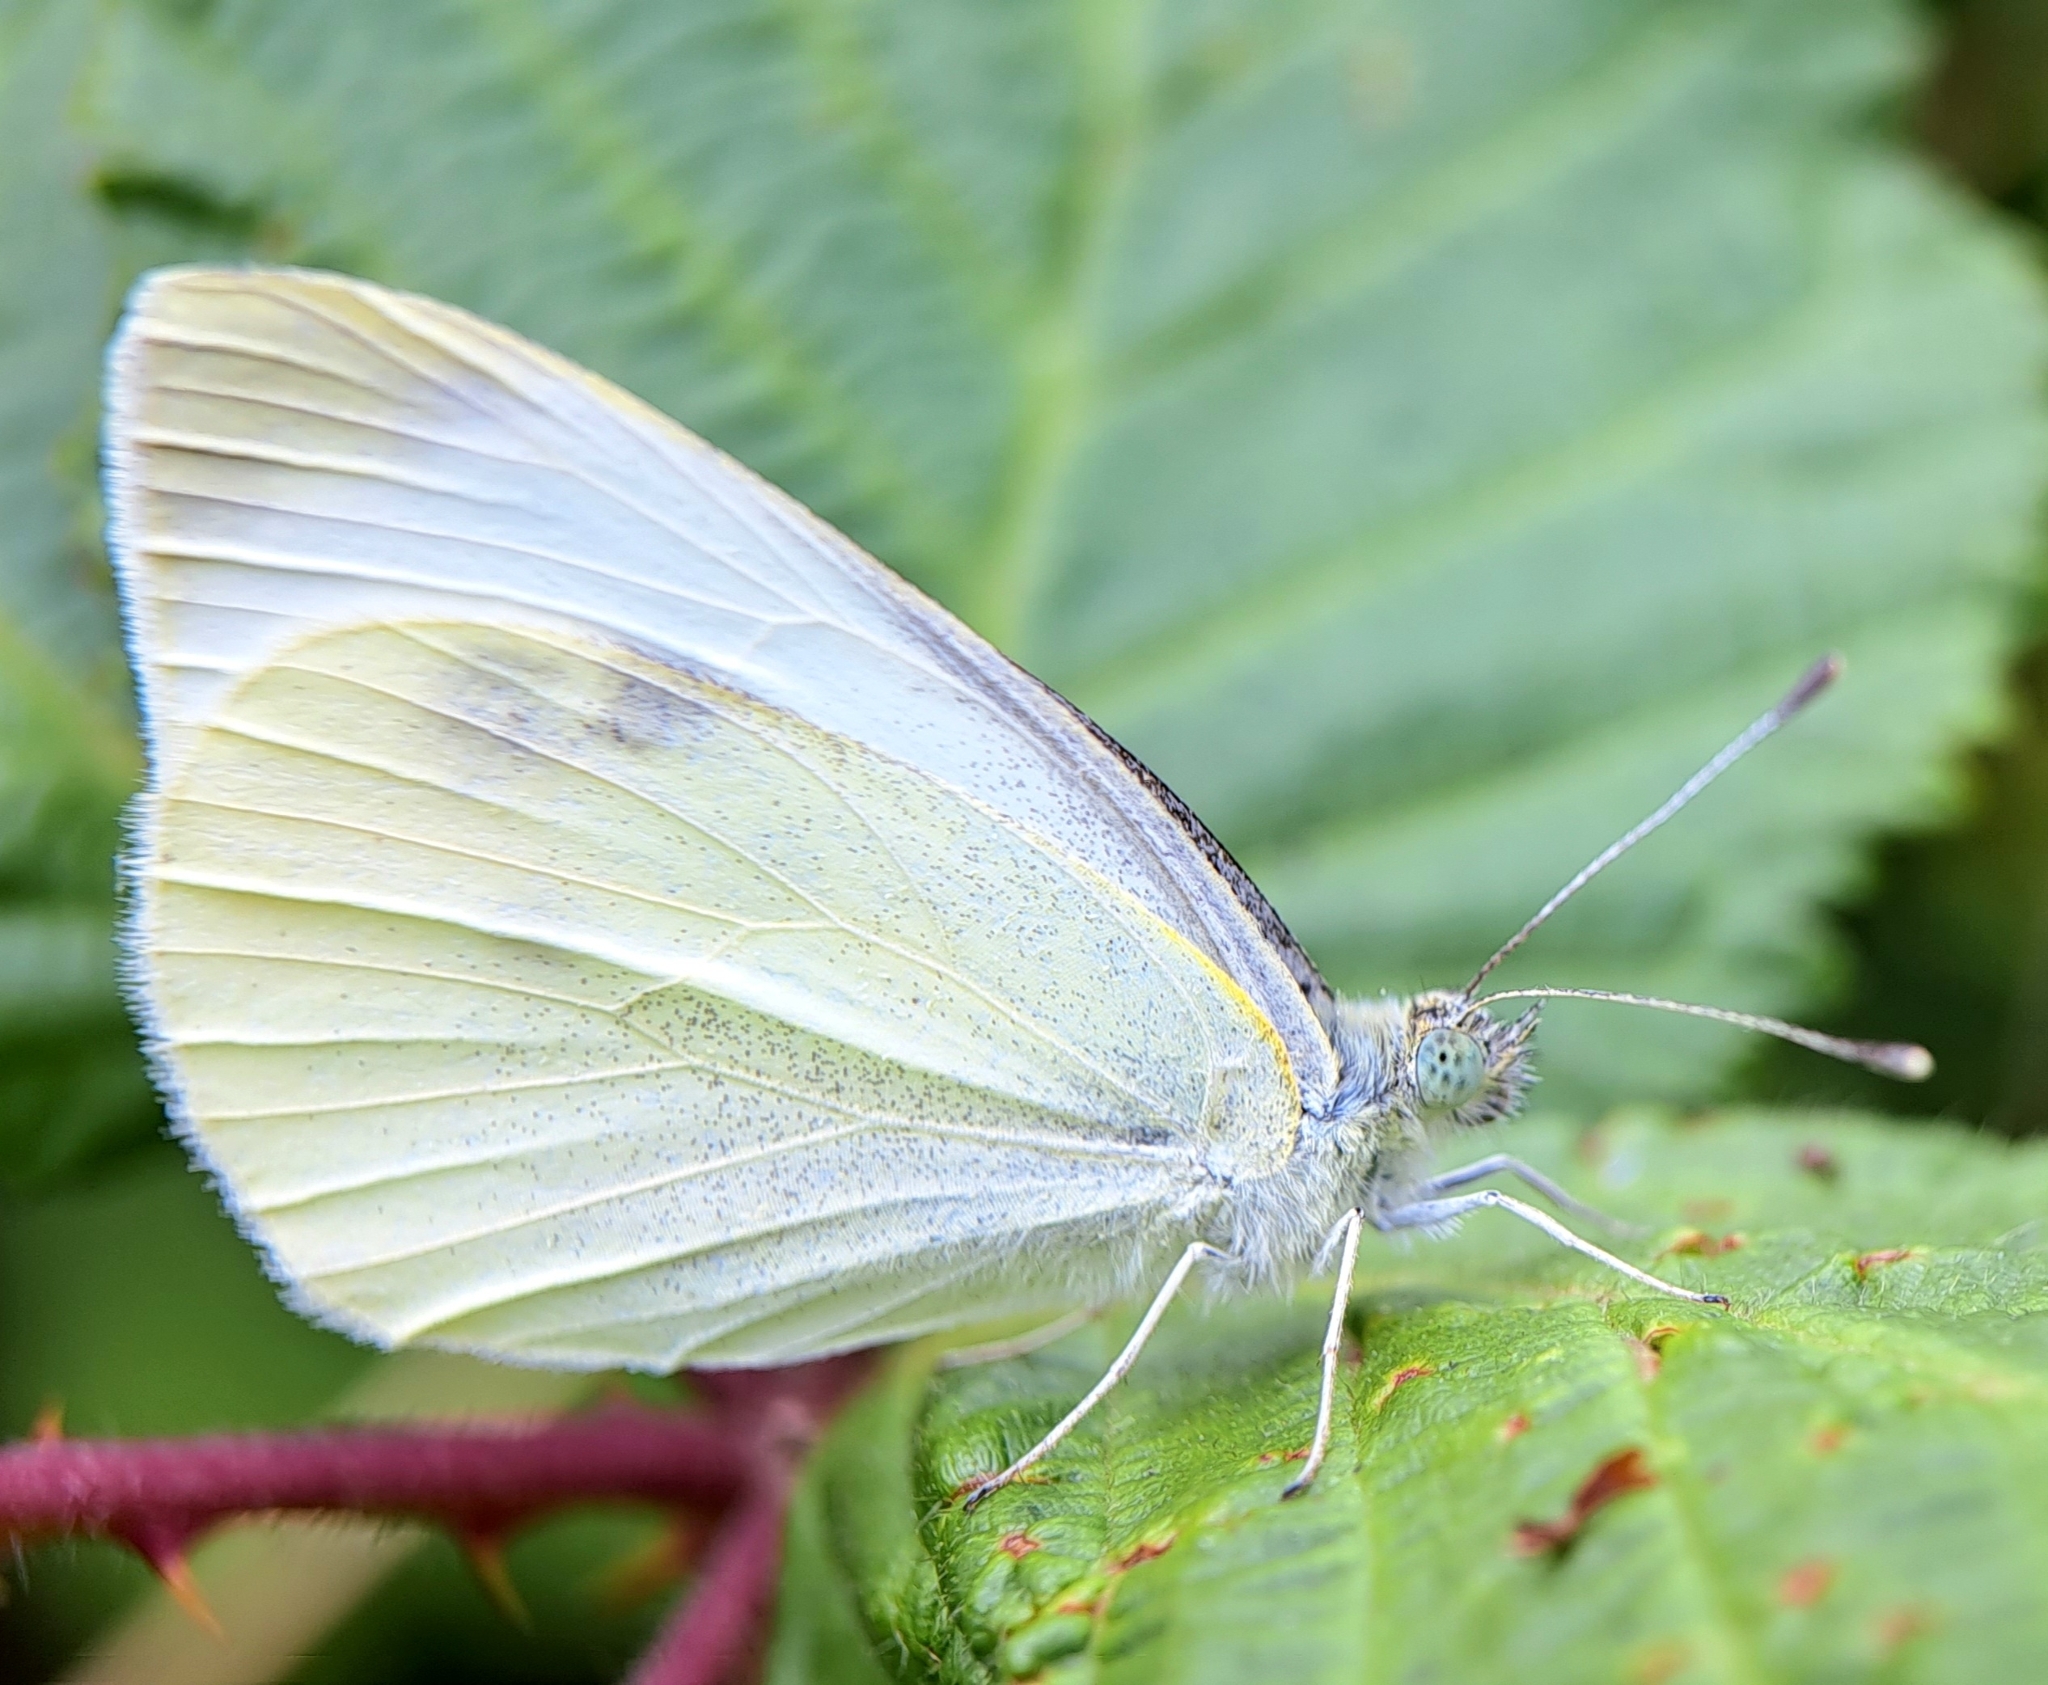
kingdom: Animalia
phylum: Arthropoda
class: Insecta
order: Lepidoptera
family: Pieridae
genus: Pieris
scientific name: Pieris rapae
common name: Small white
